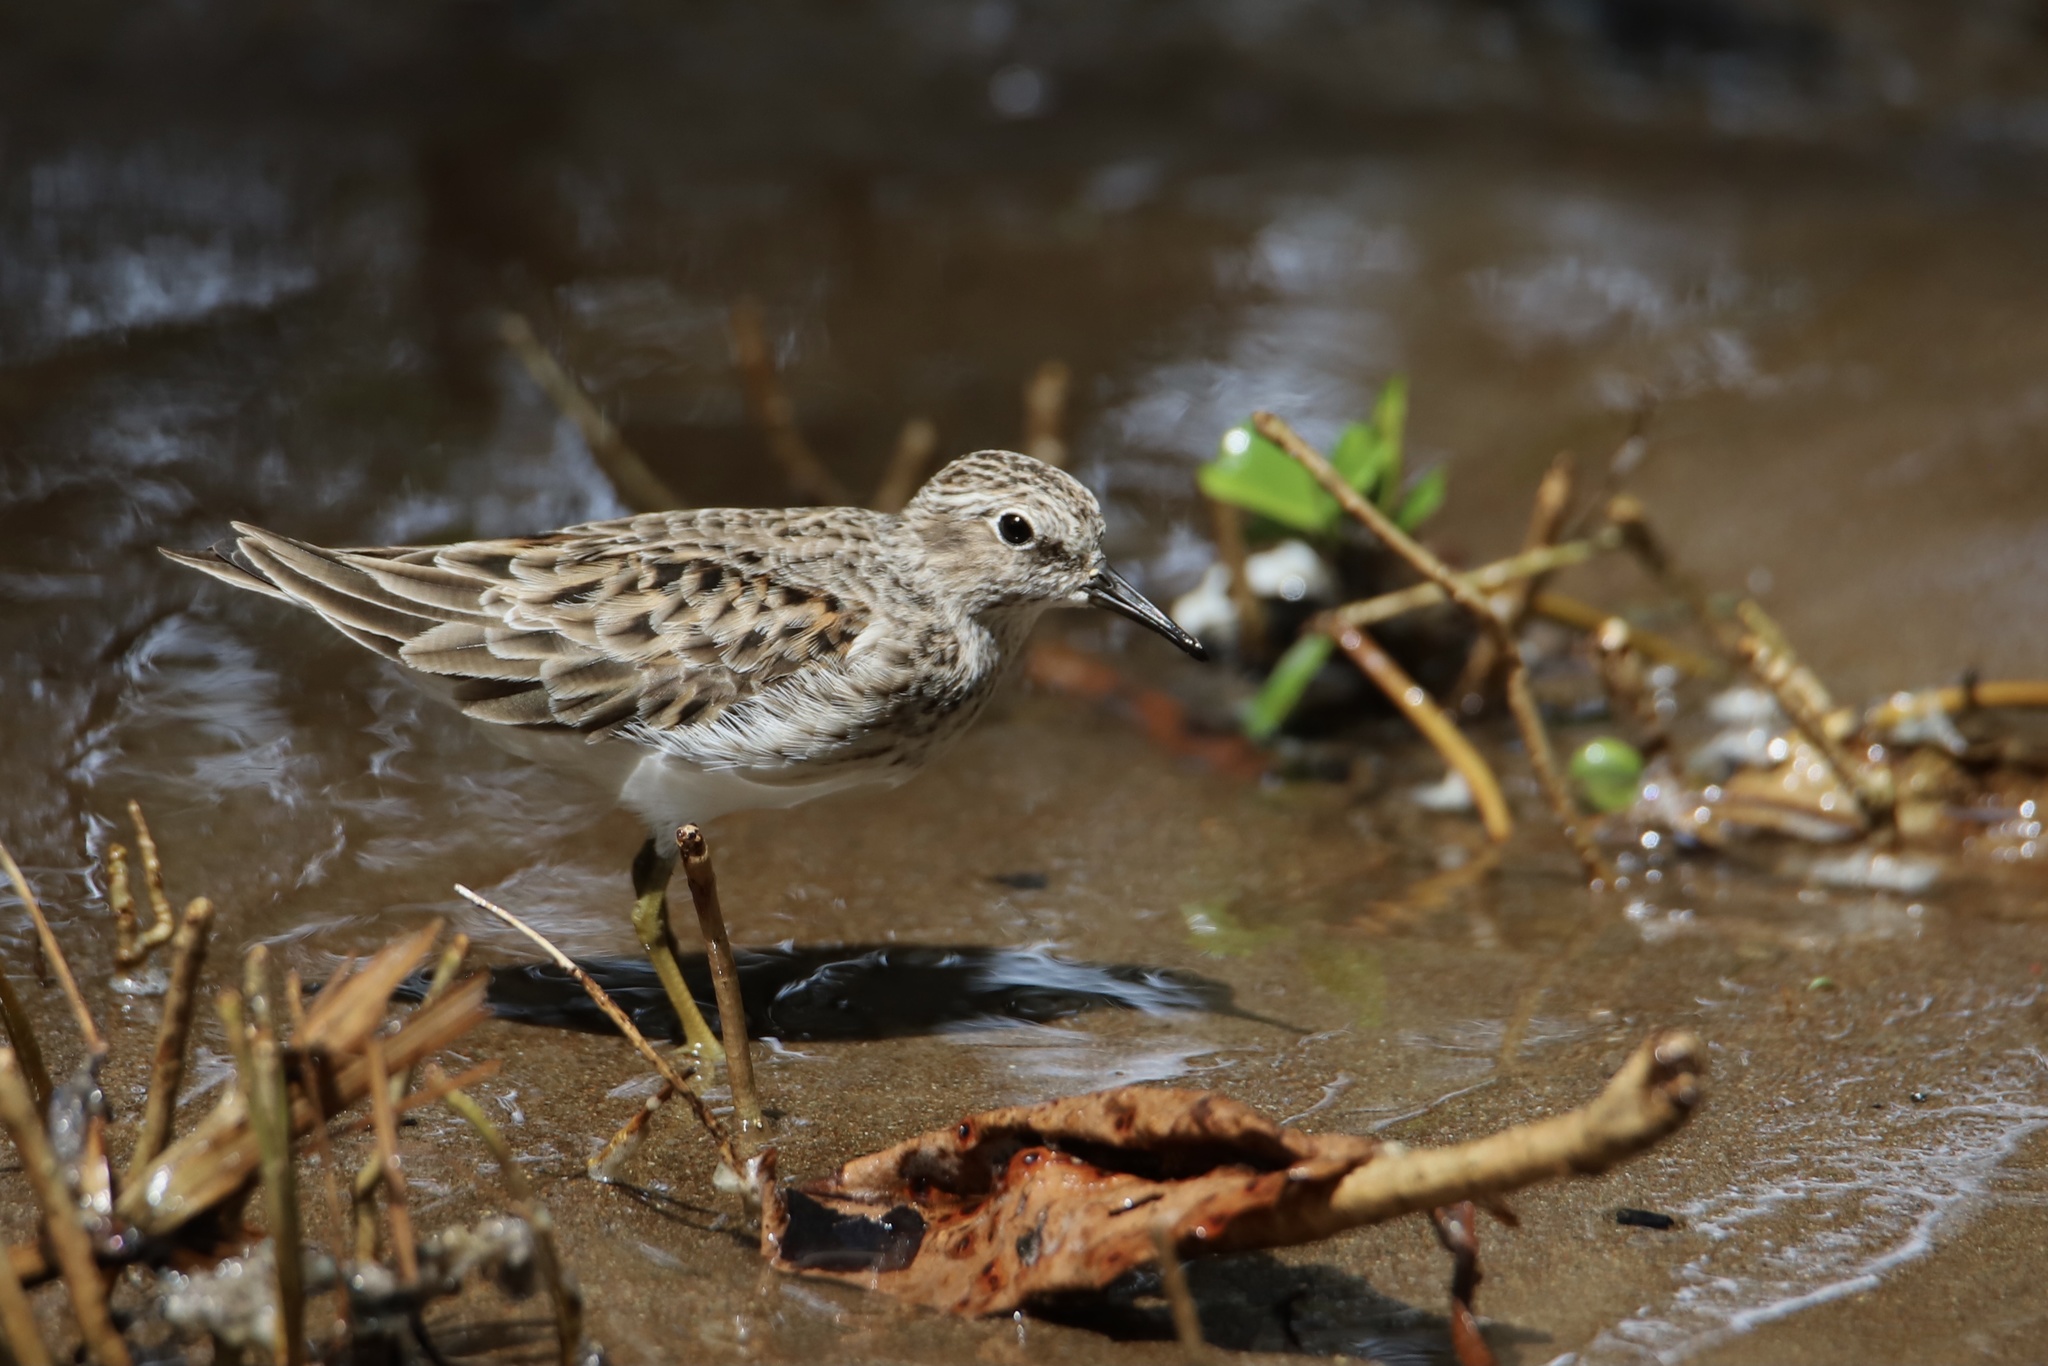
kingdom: Animalia
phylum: Chordata
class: Aves
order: Charadriiformes
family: Scolopacidae
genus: Calidris
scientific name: Calidris minutilla
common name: Least sandpiper
